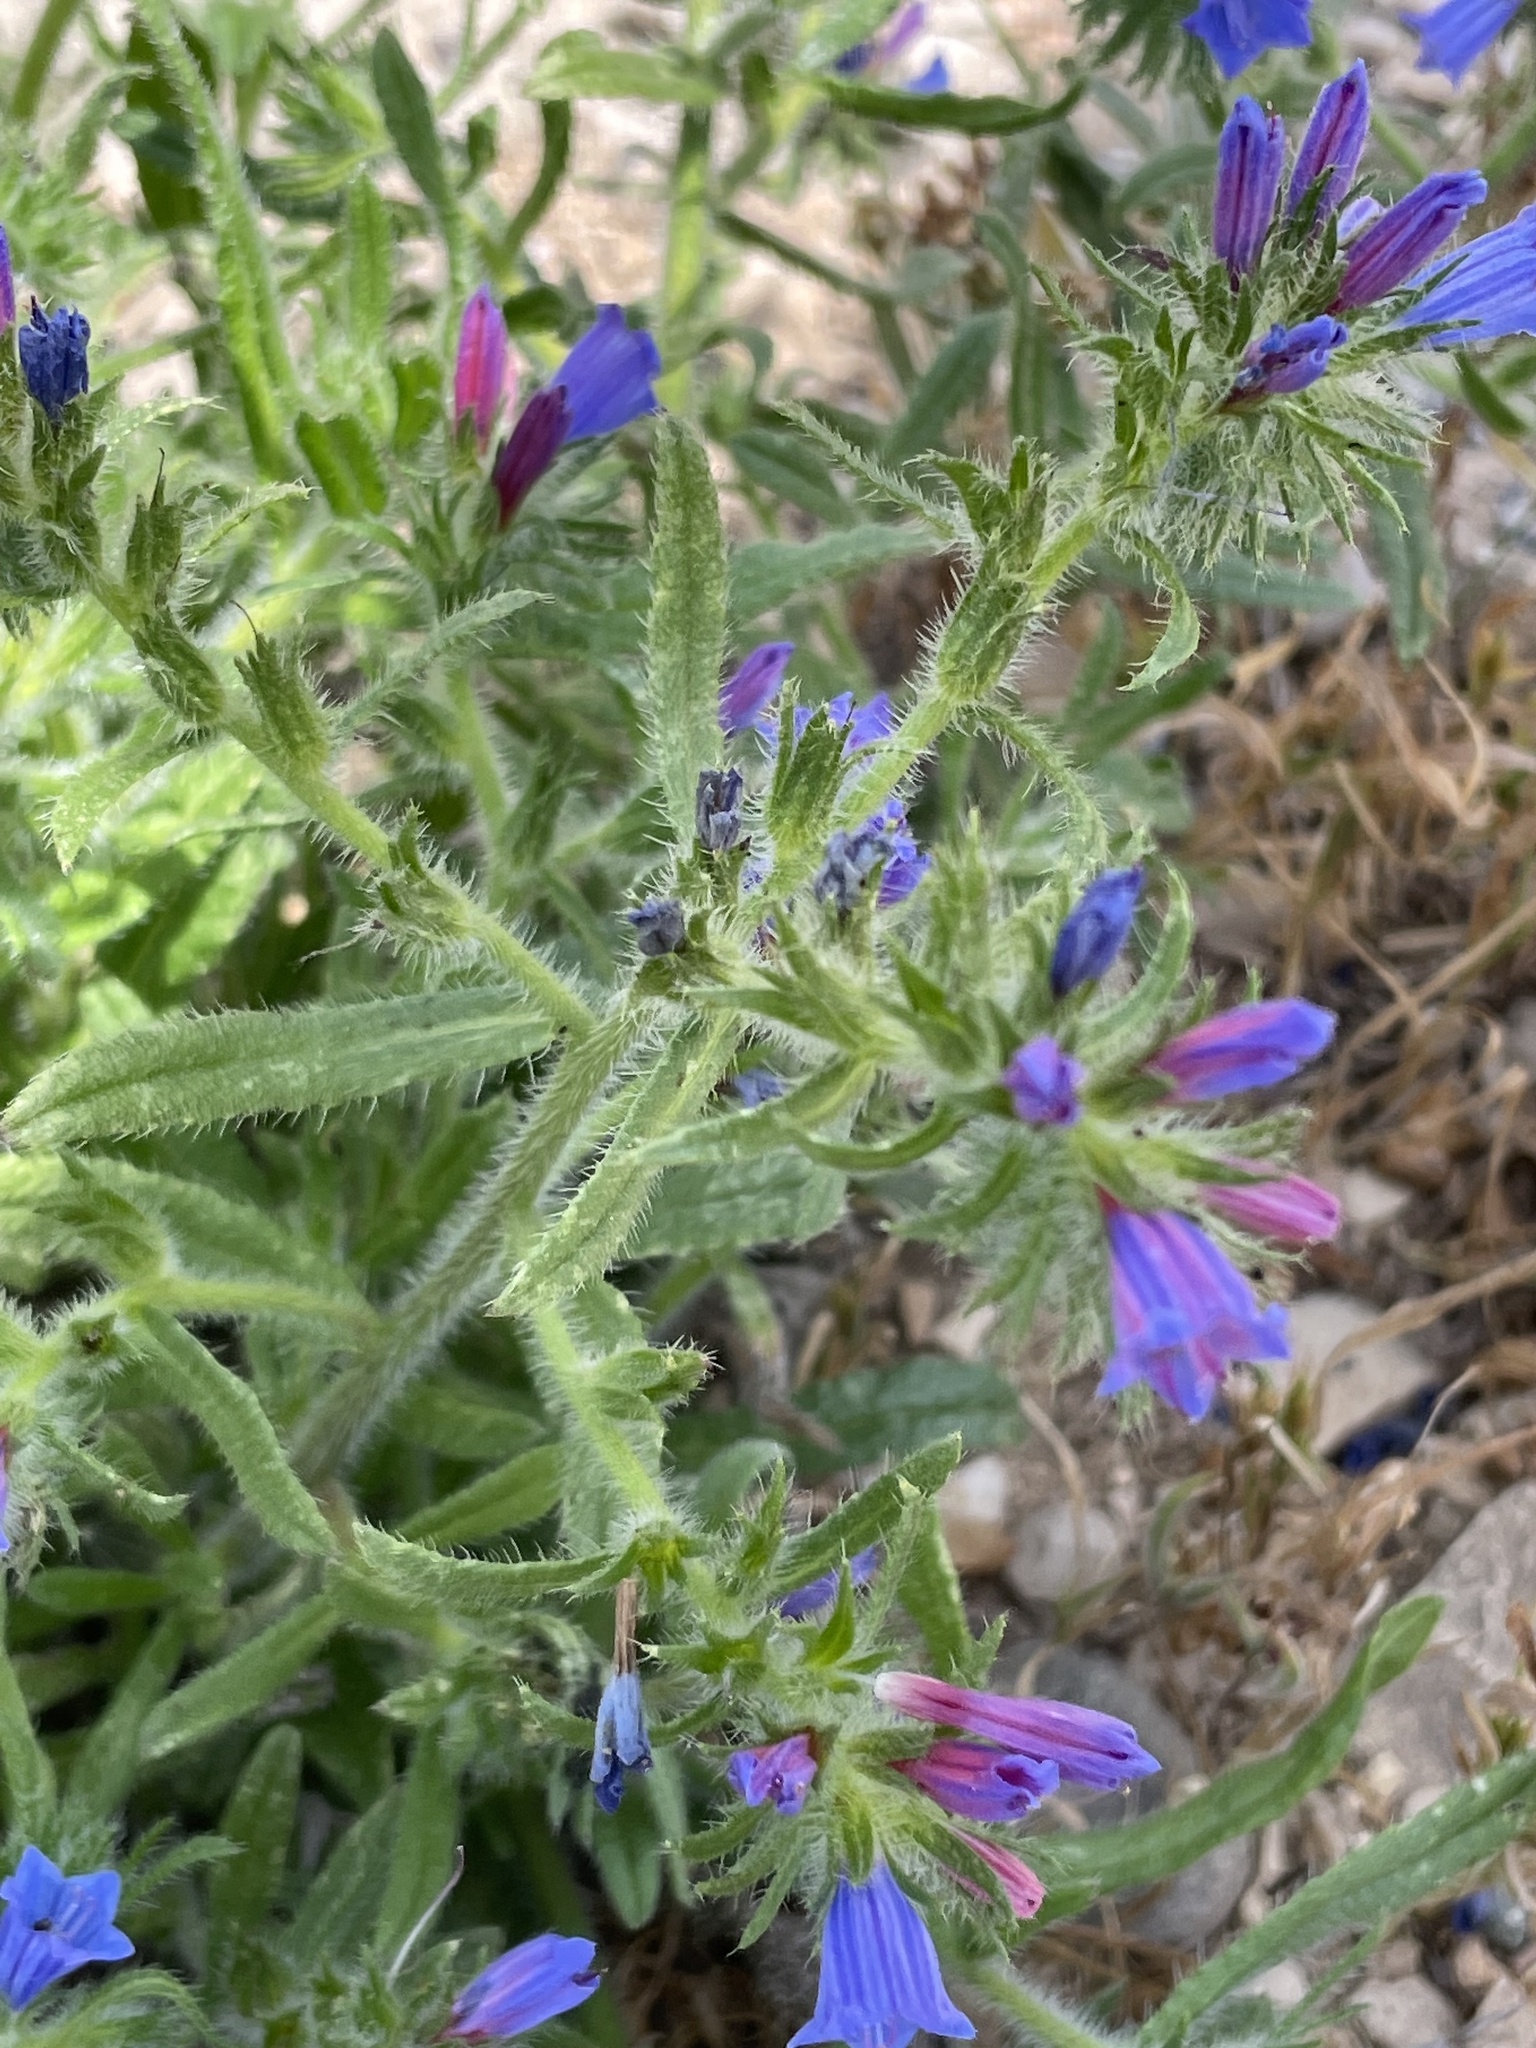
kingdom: Plantae
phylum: Tracheophyta
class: Magnoliopsida
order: Boraginales
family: Boraginaceae
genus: Echium
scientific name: Echium tenue
